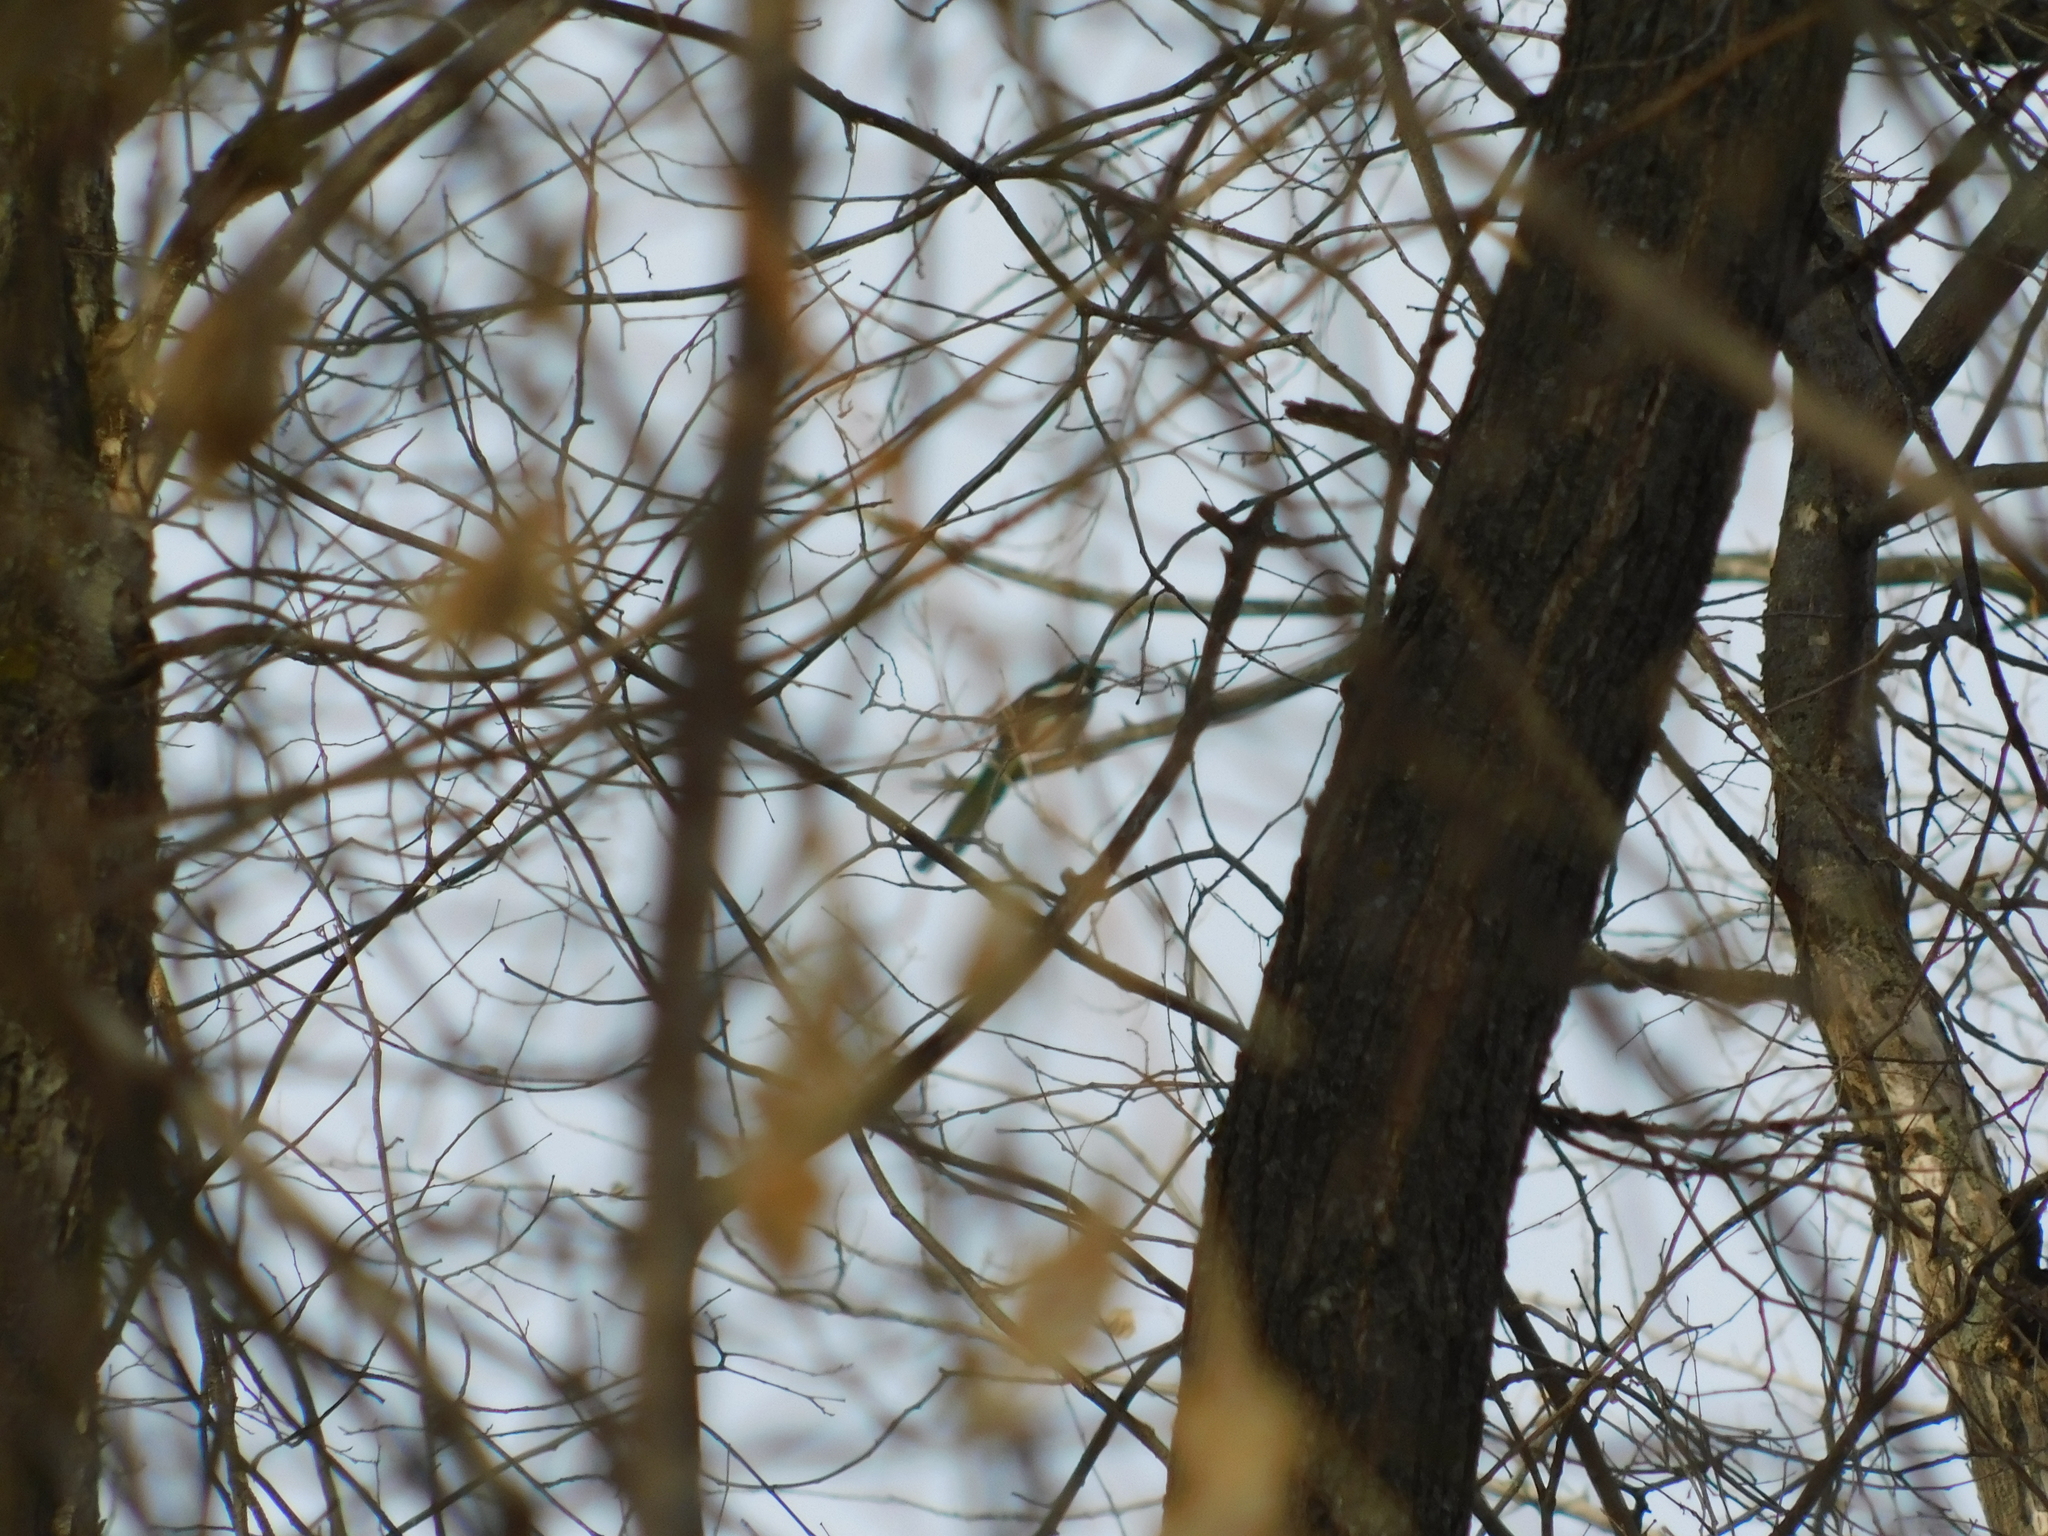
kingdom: Animalia
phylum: Chordata
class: Aves
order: Passeriformes
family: Corvidae
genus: Pica
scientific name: Pica pica
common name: Eurasian magpie
